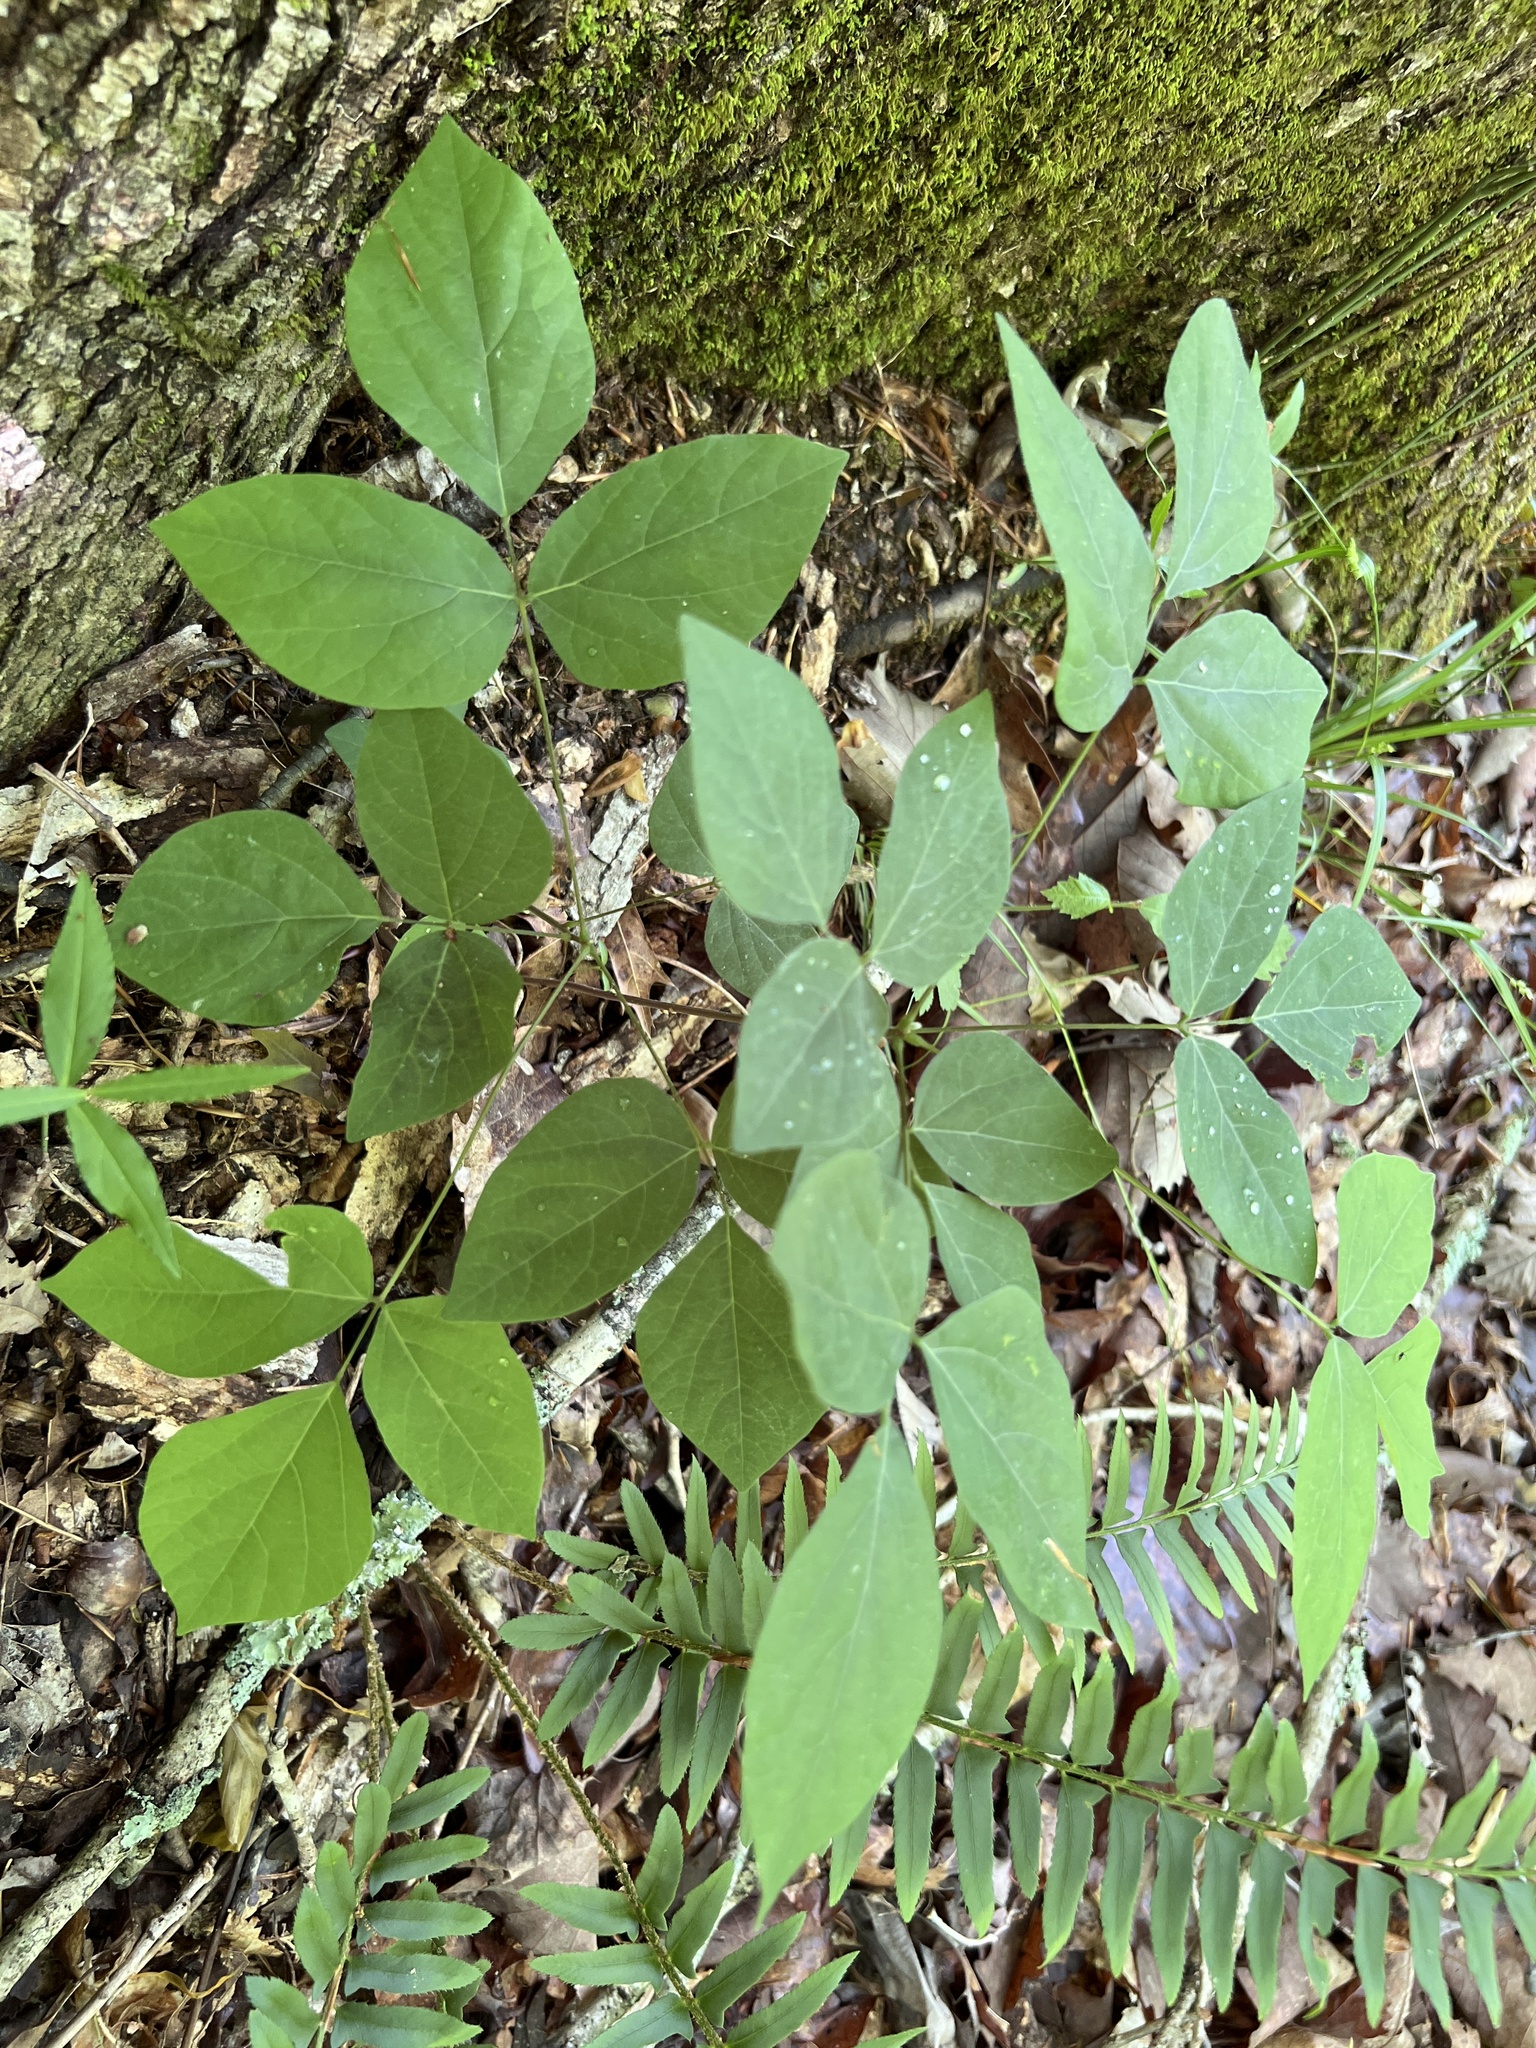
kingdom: Plantae
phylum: Tracheophyta
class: Magnoliopsida
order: Fabales
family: Fabaceae
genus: Hylodesmum
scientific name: Hylodesmum nudiflorum
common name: Bare-stemmed tick-trefoil
